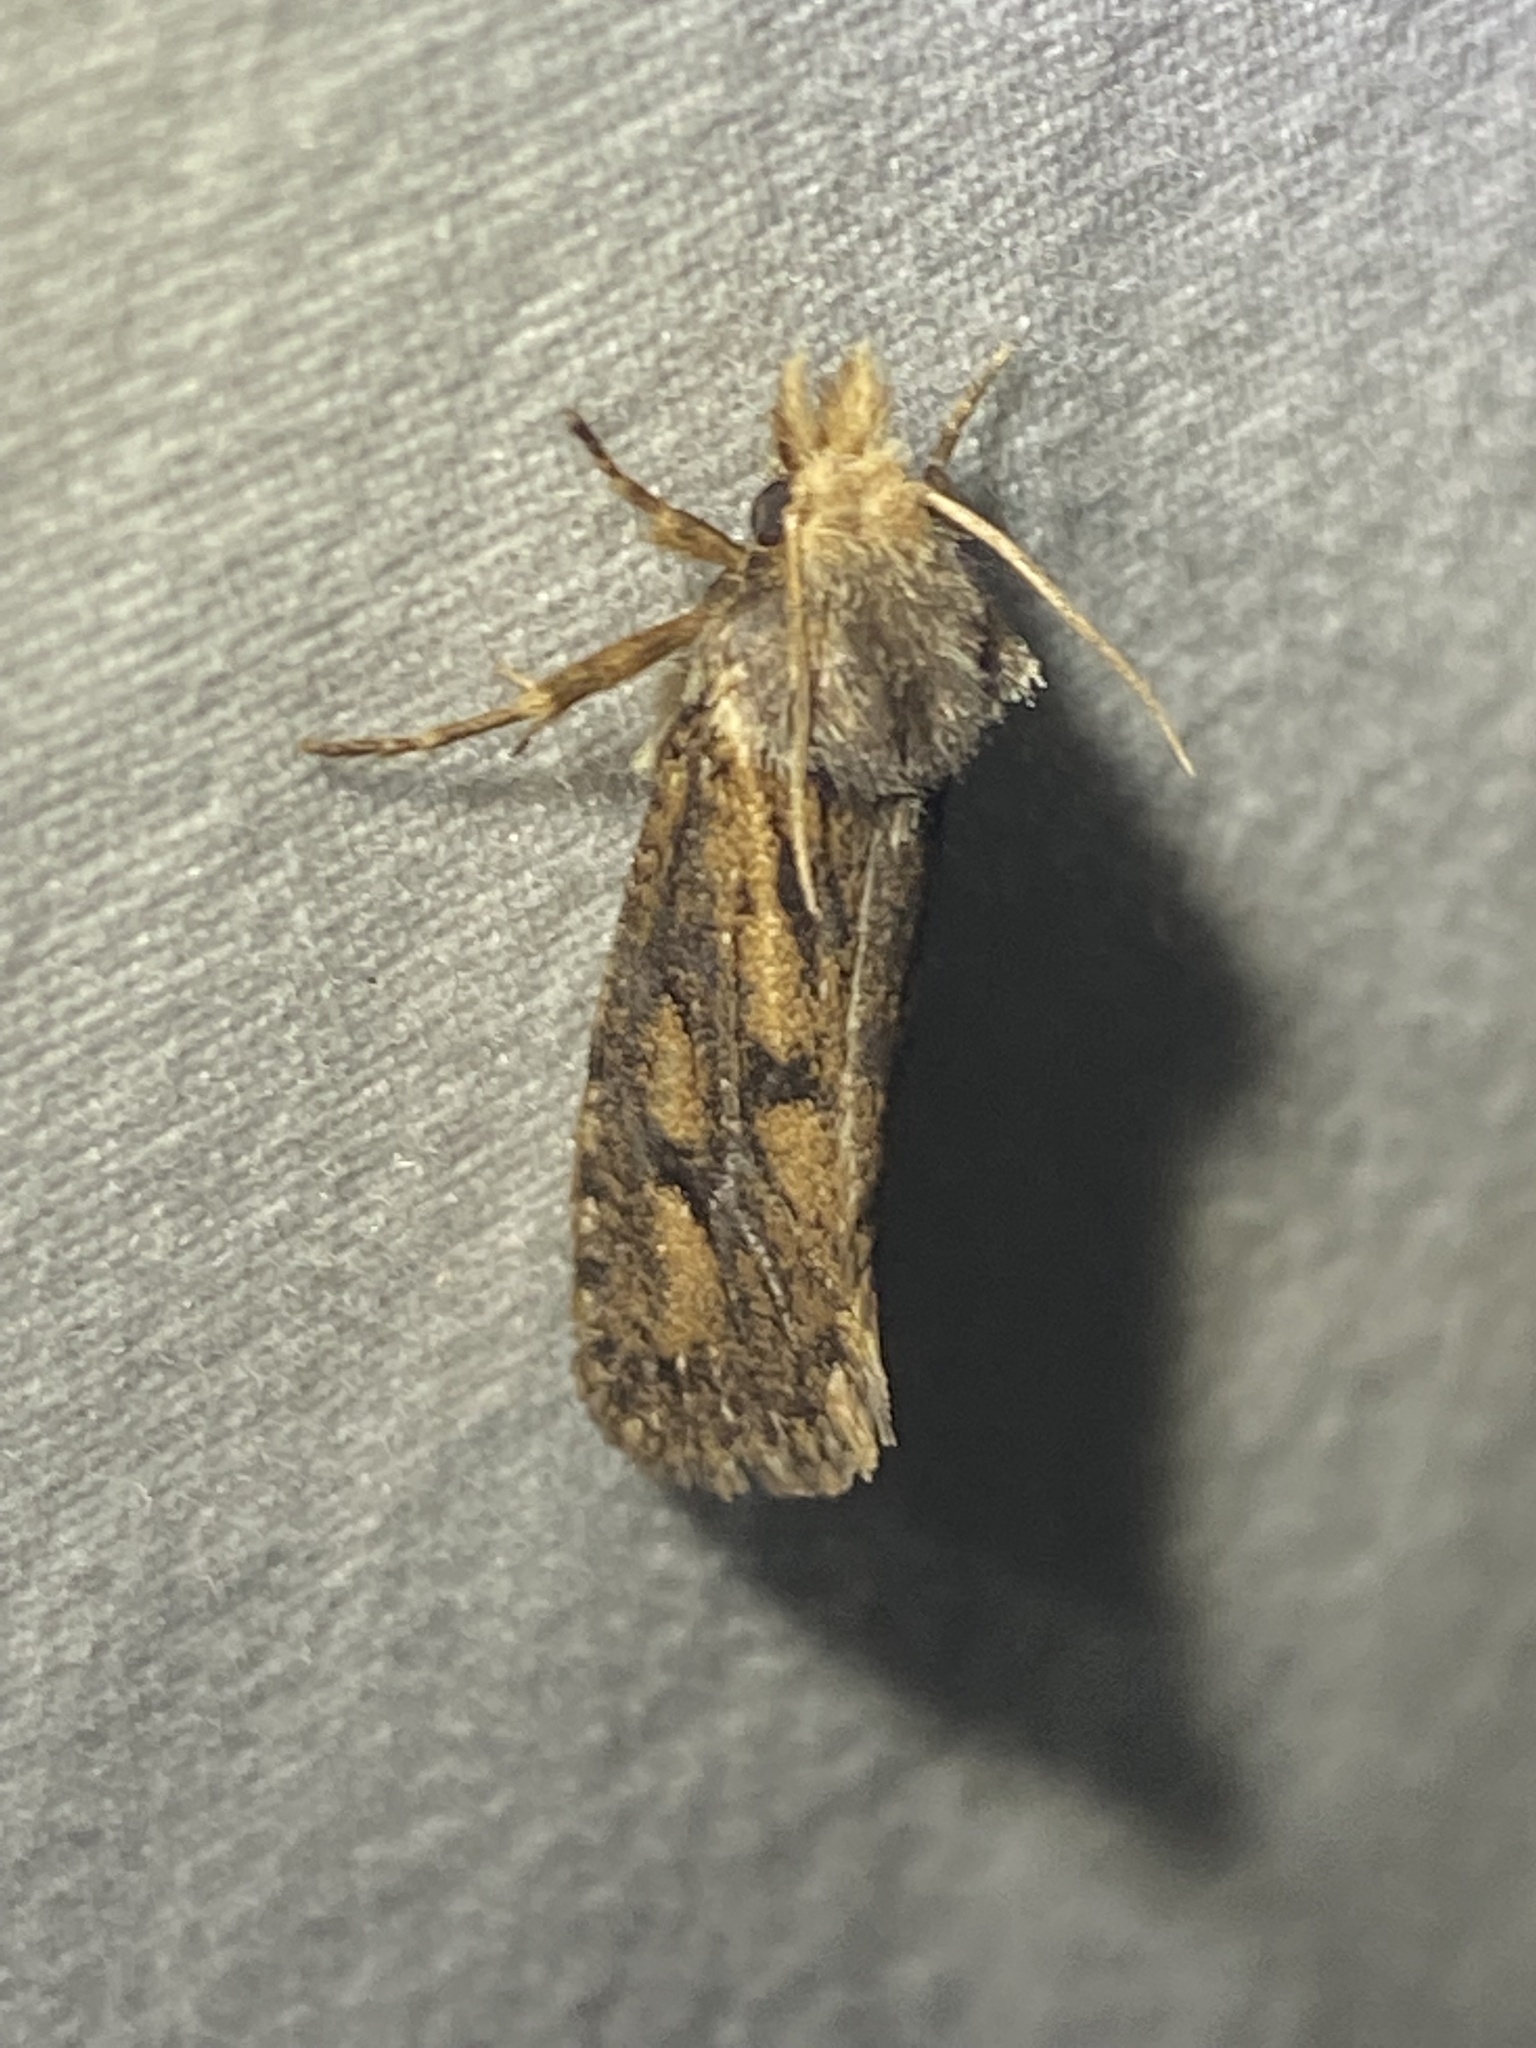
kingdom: Animalia
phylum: Arthropoda
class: Insecta
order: Lepidoptera
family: Tineidae
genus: Acrolophus
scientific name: Acrolophus popeanella
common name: Clemens' grass tubeworm moth
